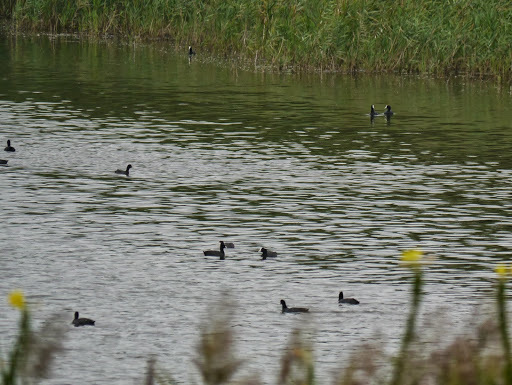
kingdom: Animalia
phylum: Chordata
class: Aves
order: Gruiformes
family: Rallidae
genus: Fulica
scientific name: Fulica atra
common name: Eurasian coot
